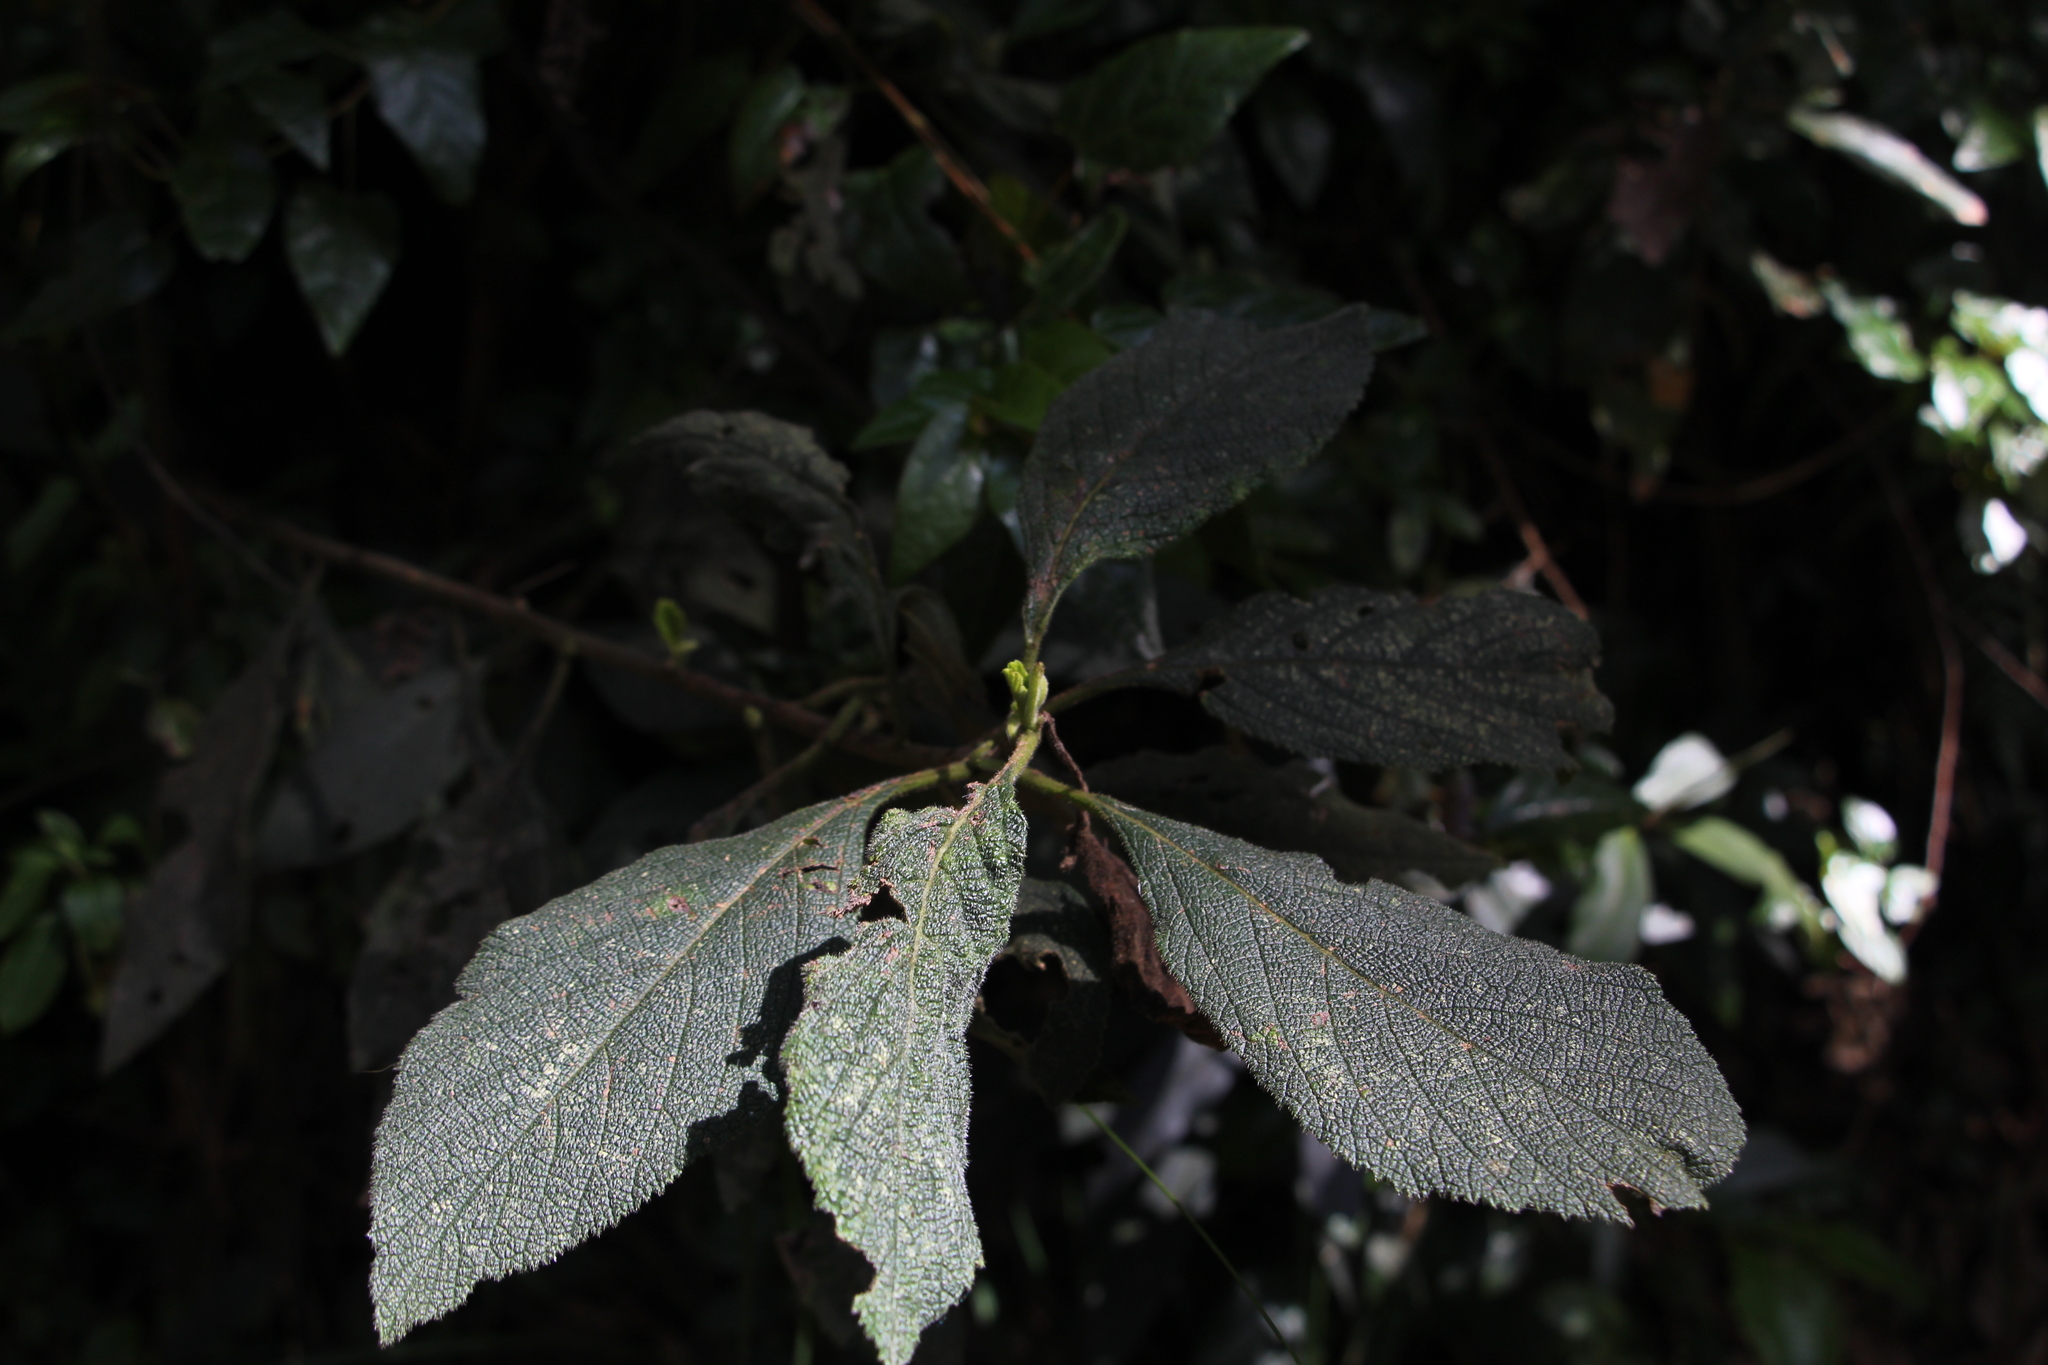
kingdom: Plantae
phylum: Tracheophyta
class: Magnoliopsida
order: Boraginales
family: Cordiaceae
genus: Varronia
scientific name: Varronia cylindrostachya
